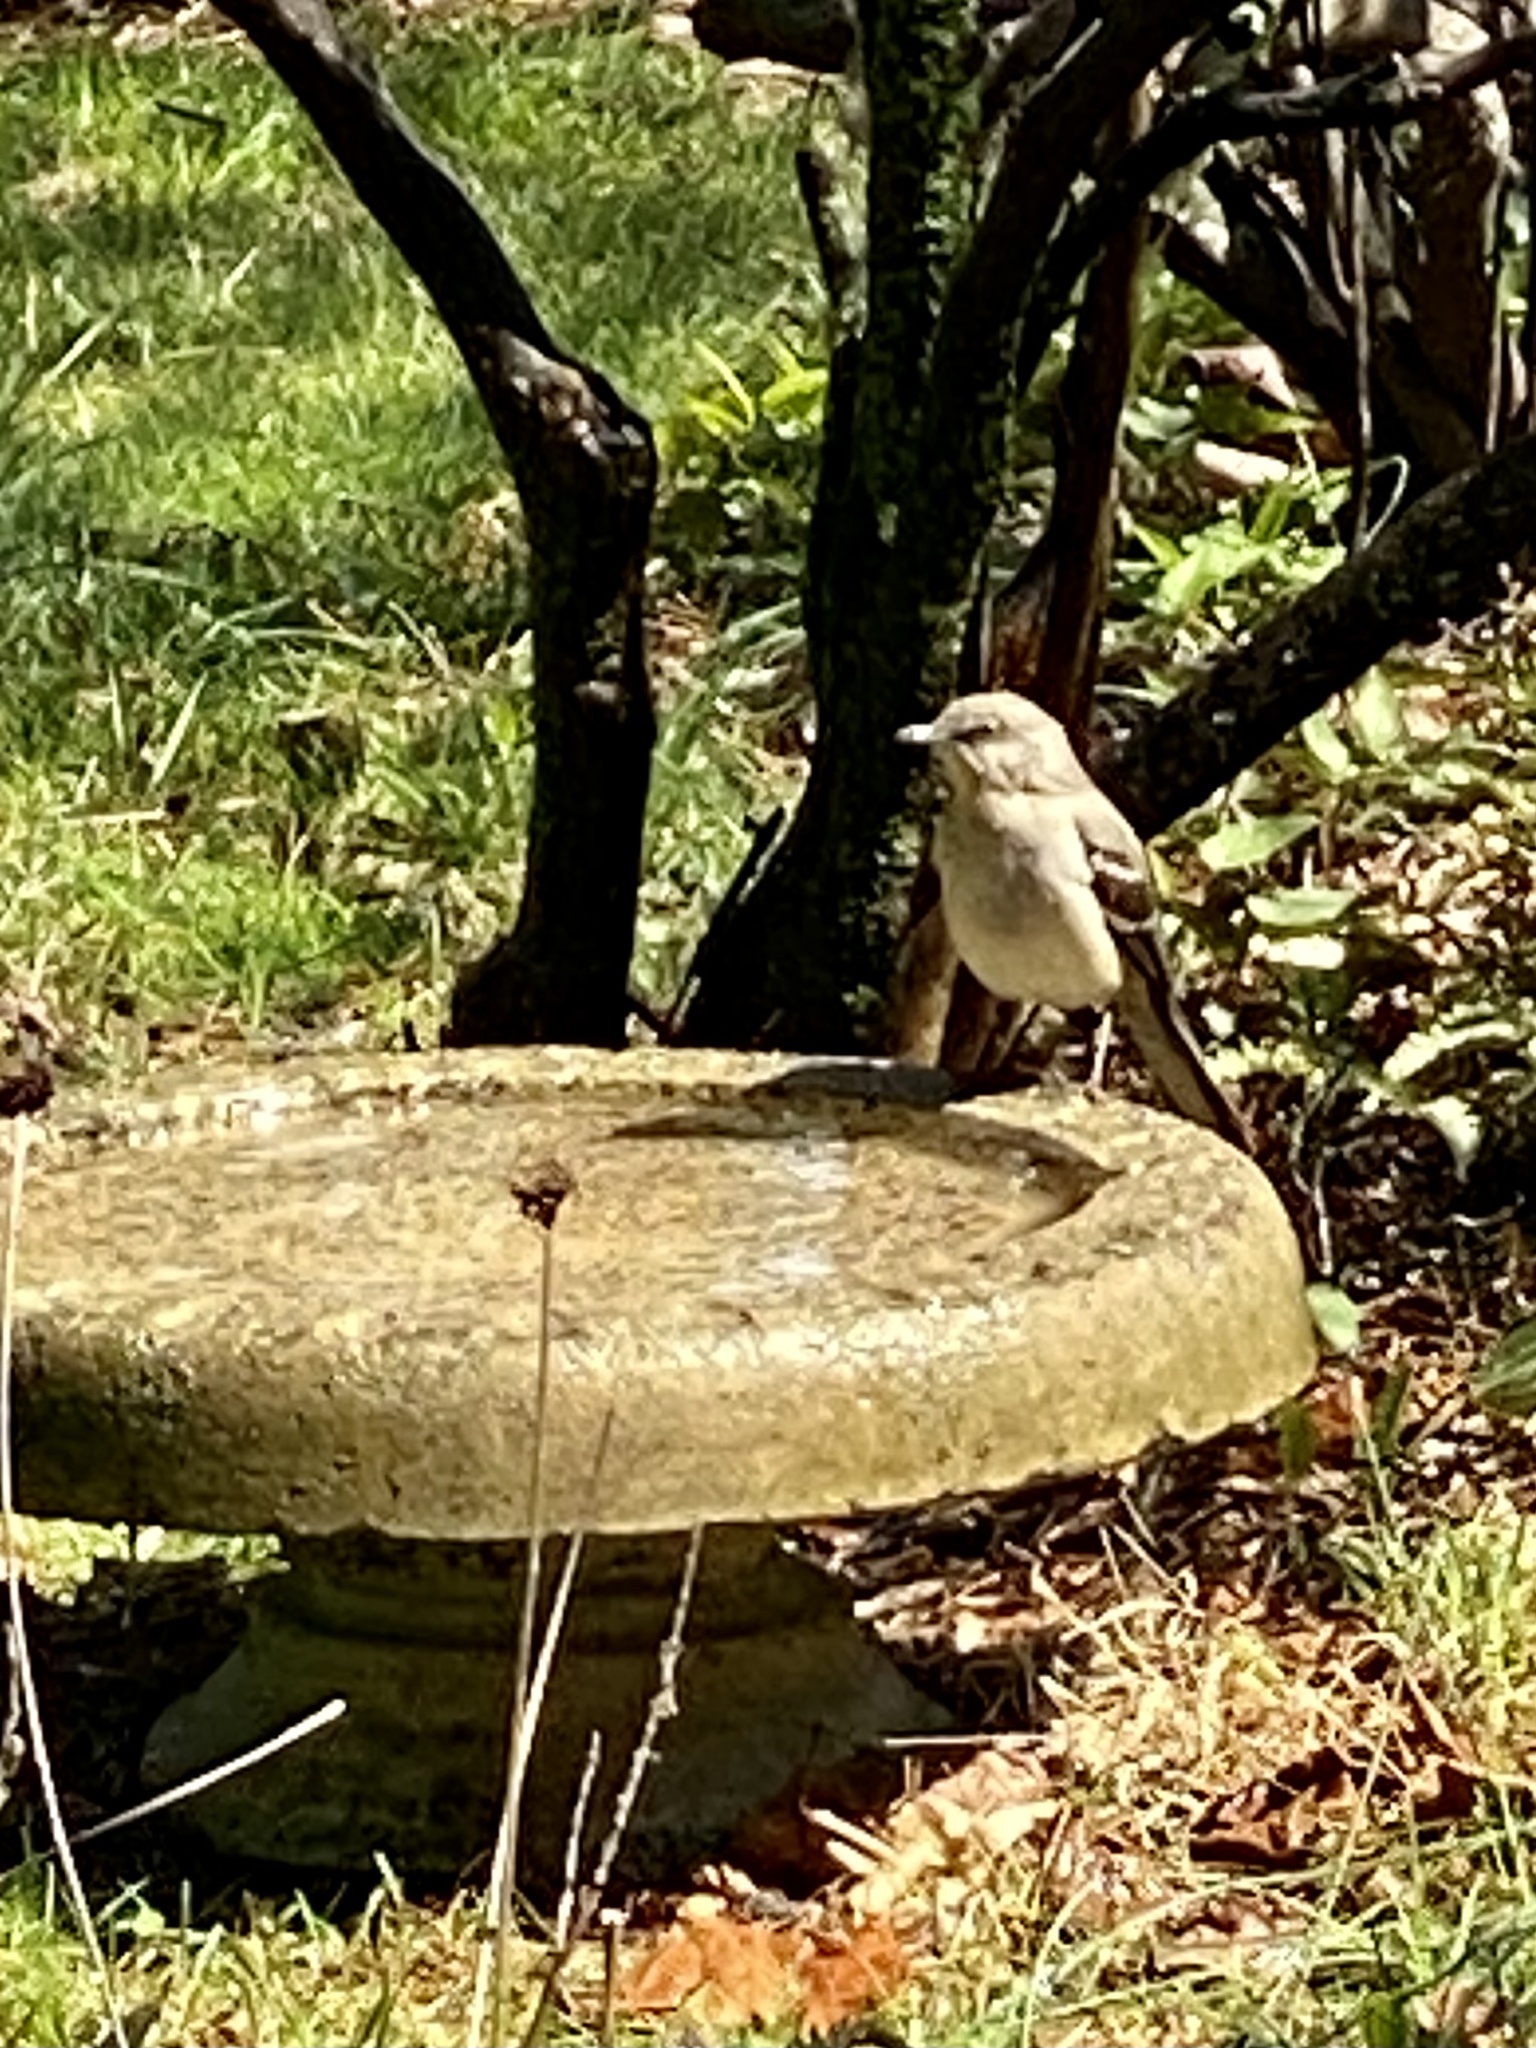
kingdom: Animalia
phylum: Chordata
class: Aves
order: Passeriformes
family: Mimidae
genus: Mimus
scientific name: Mimus polyglottos
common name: Northern mockingbird
